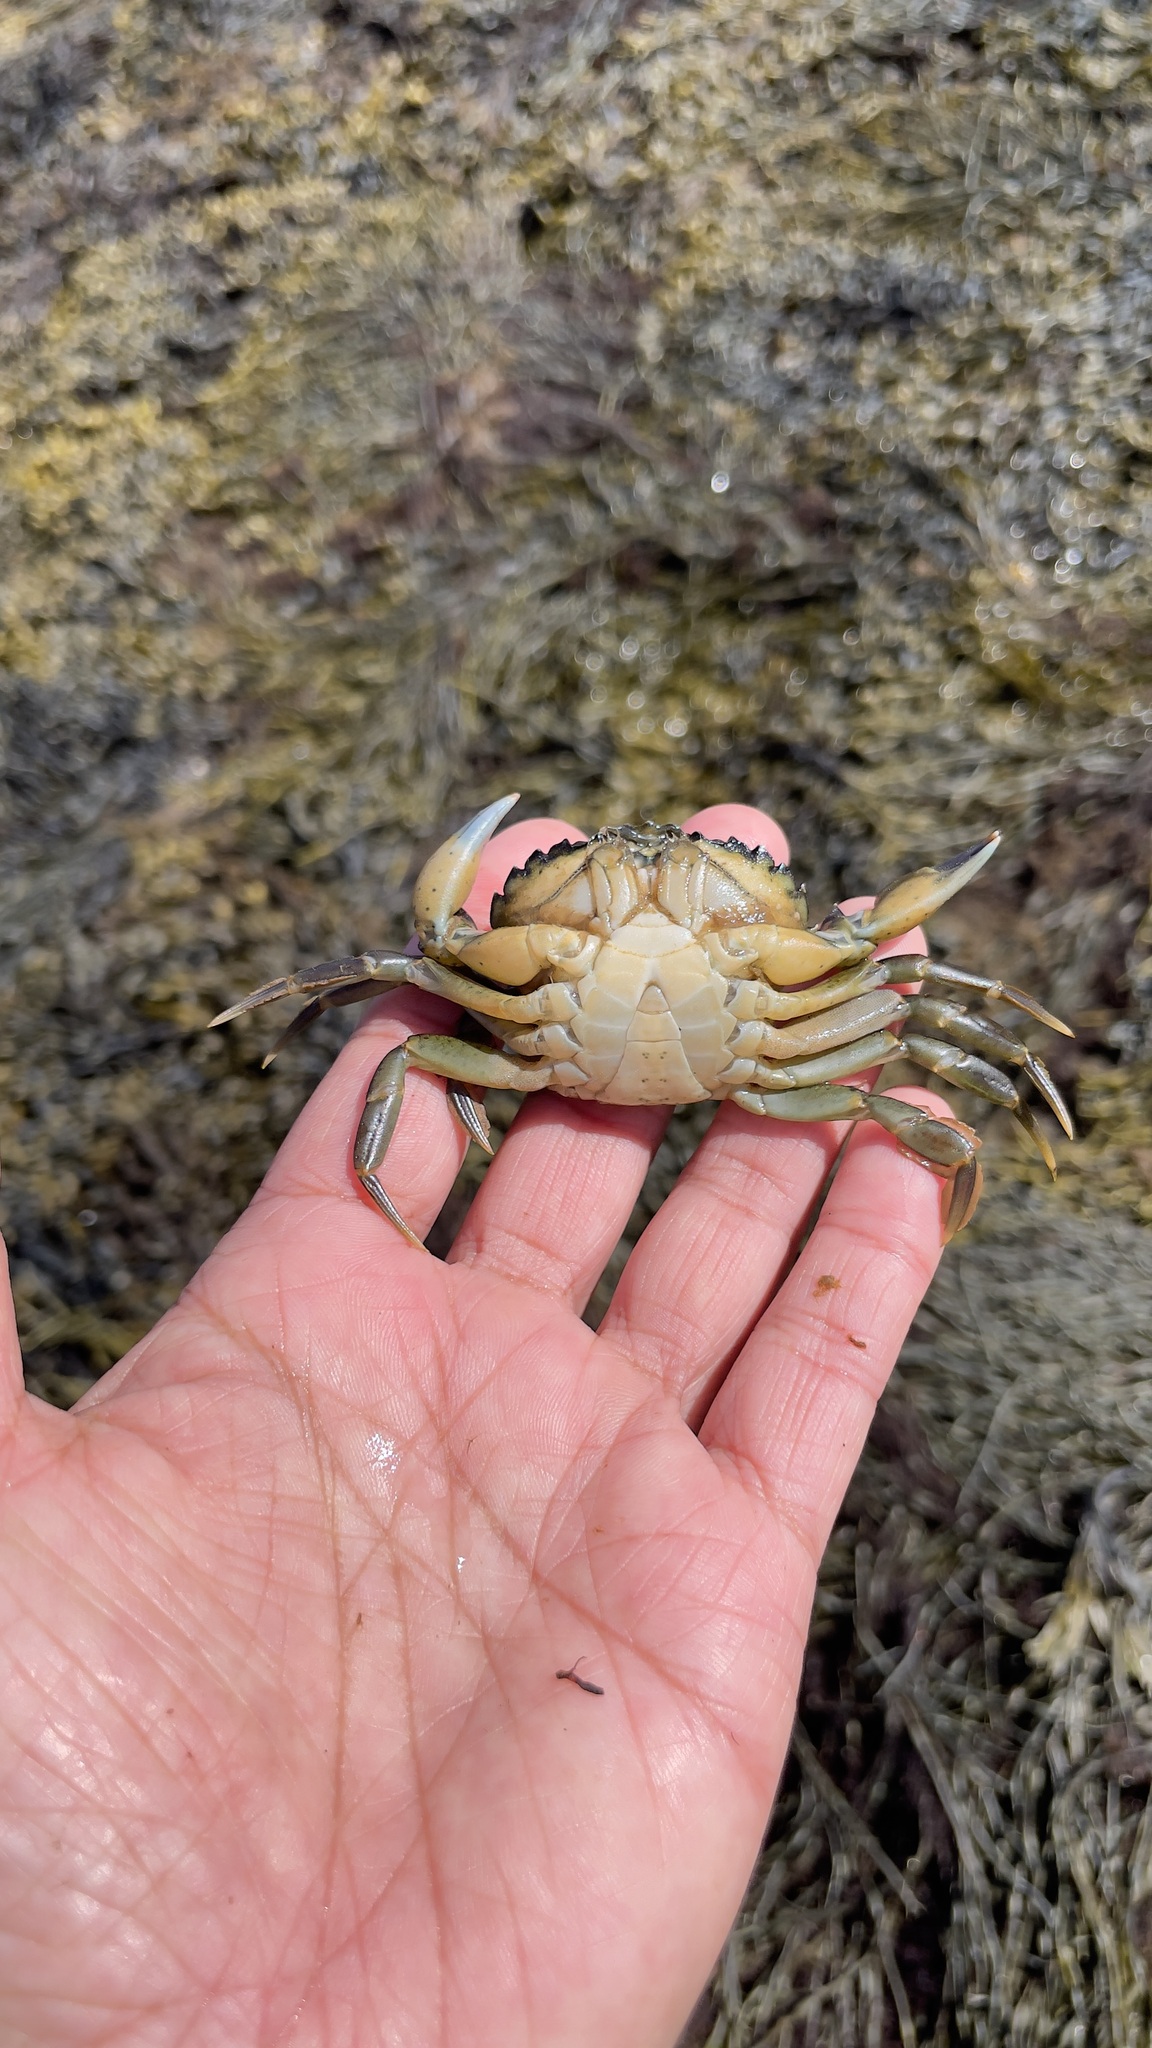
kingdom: Animalia
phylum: Arthropoda
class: Malacostraca
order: Decapoda
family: Carcinidae
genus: Carcinus
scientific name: Carcinus maenas
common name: European green crab
